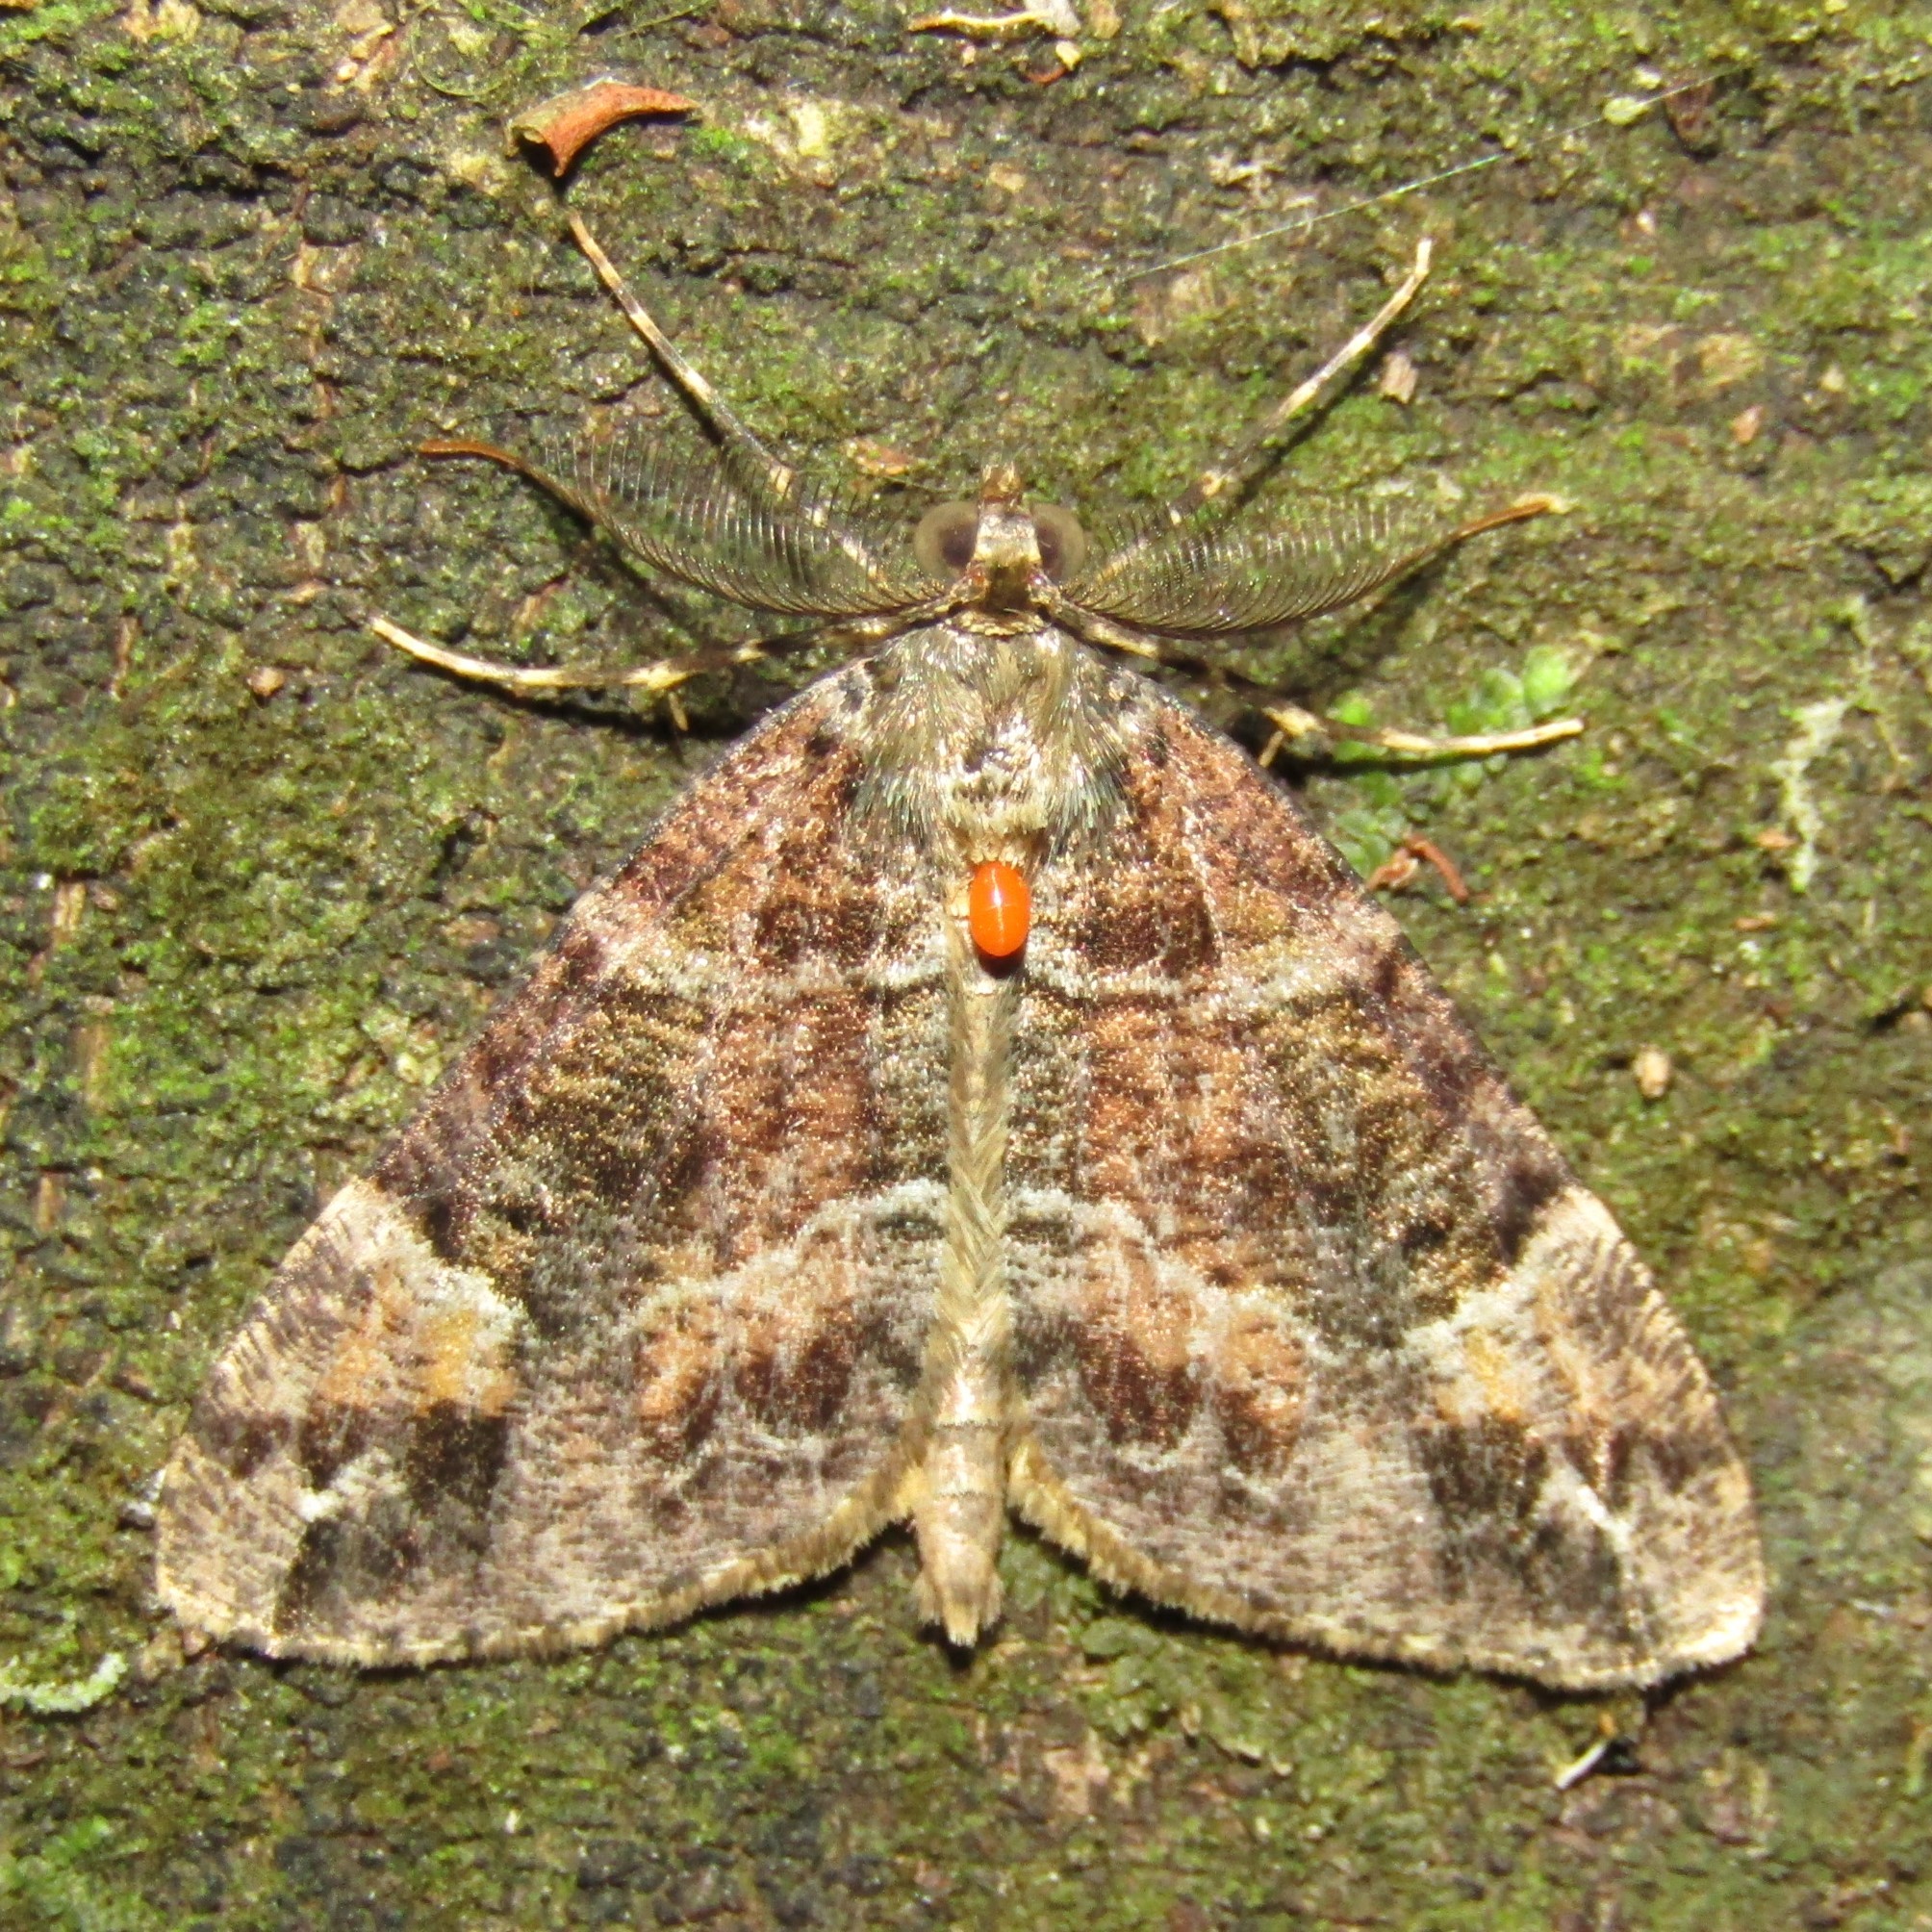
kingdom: Animalia
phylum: Arthropoda
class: Insecta
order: Lepidoptera
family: Geometridae
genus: Pseudocoremia
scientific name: Pseudocoremia productata
